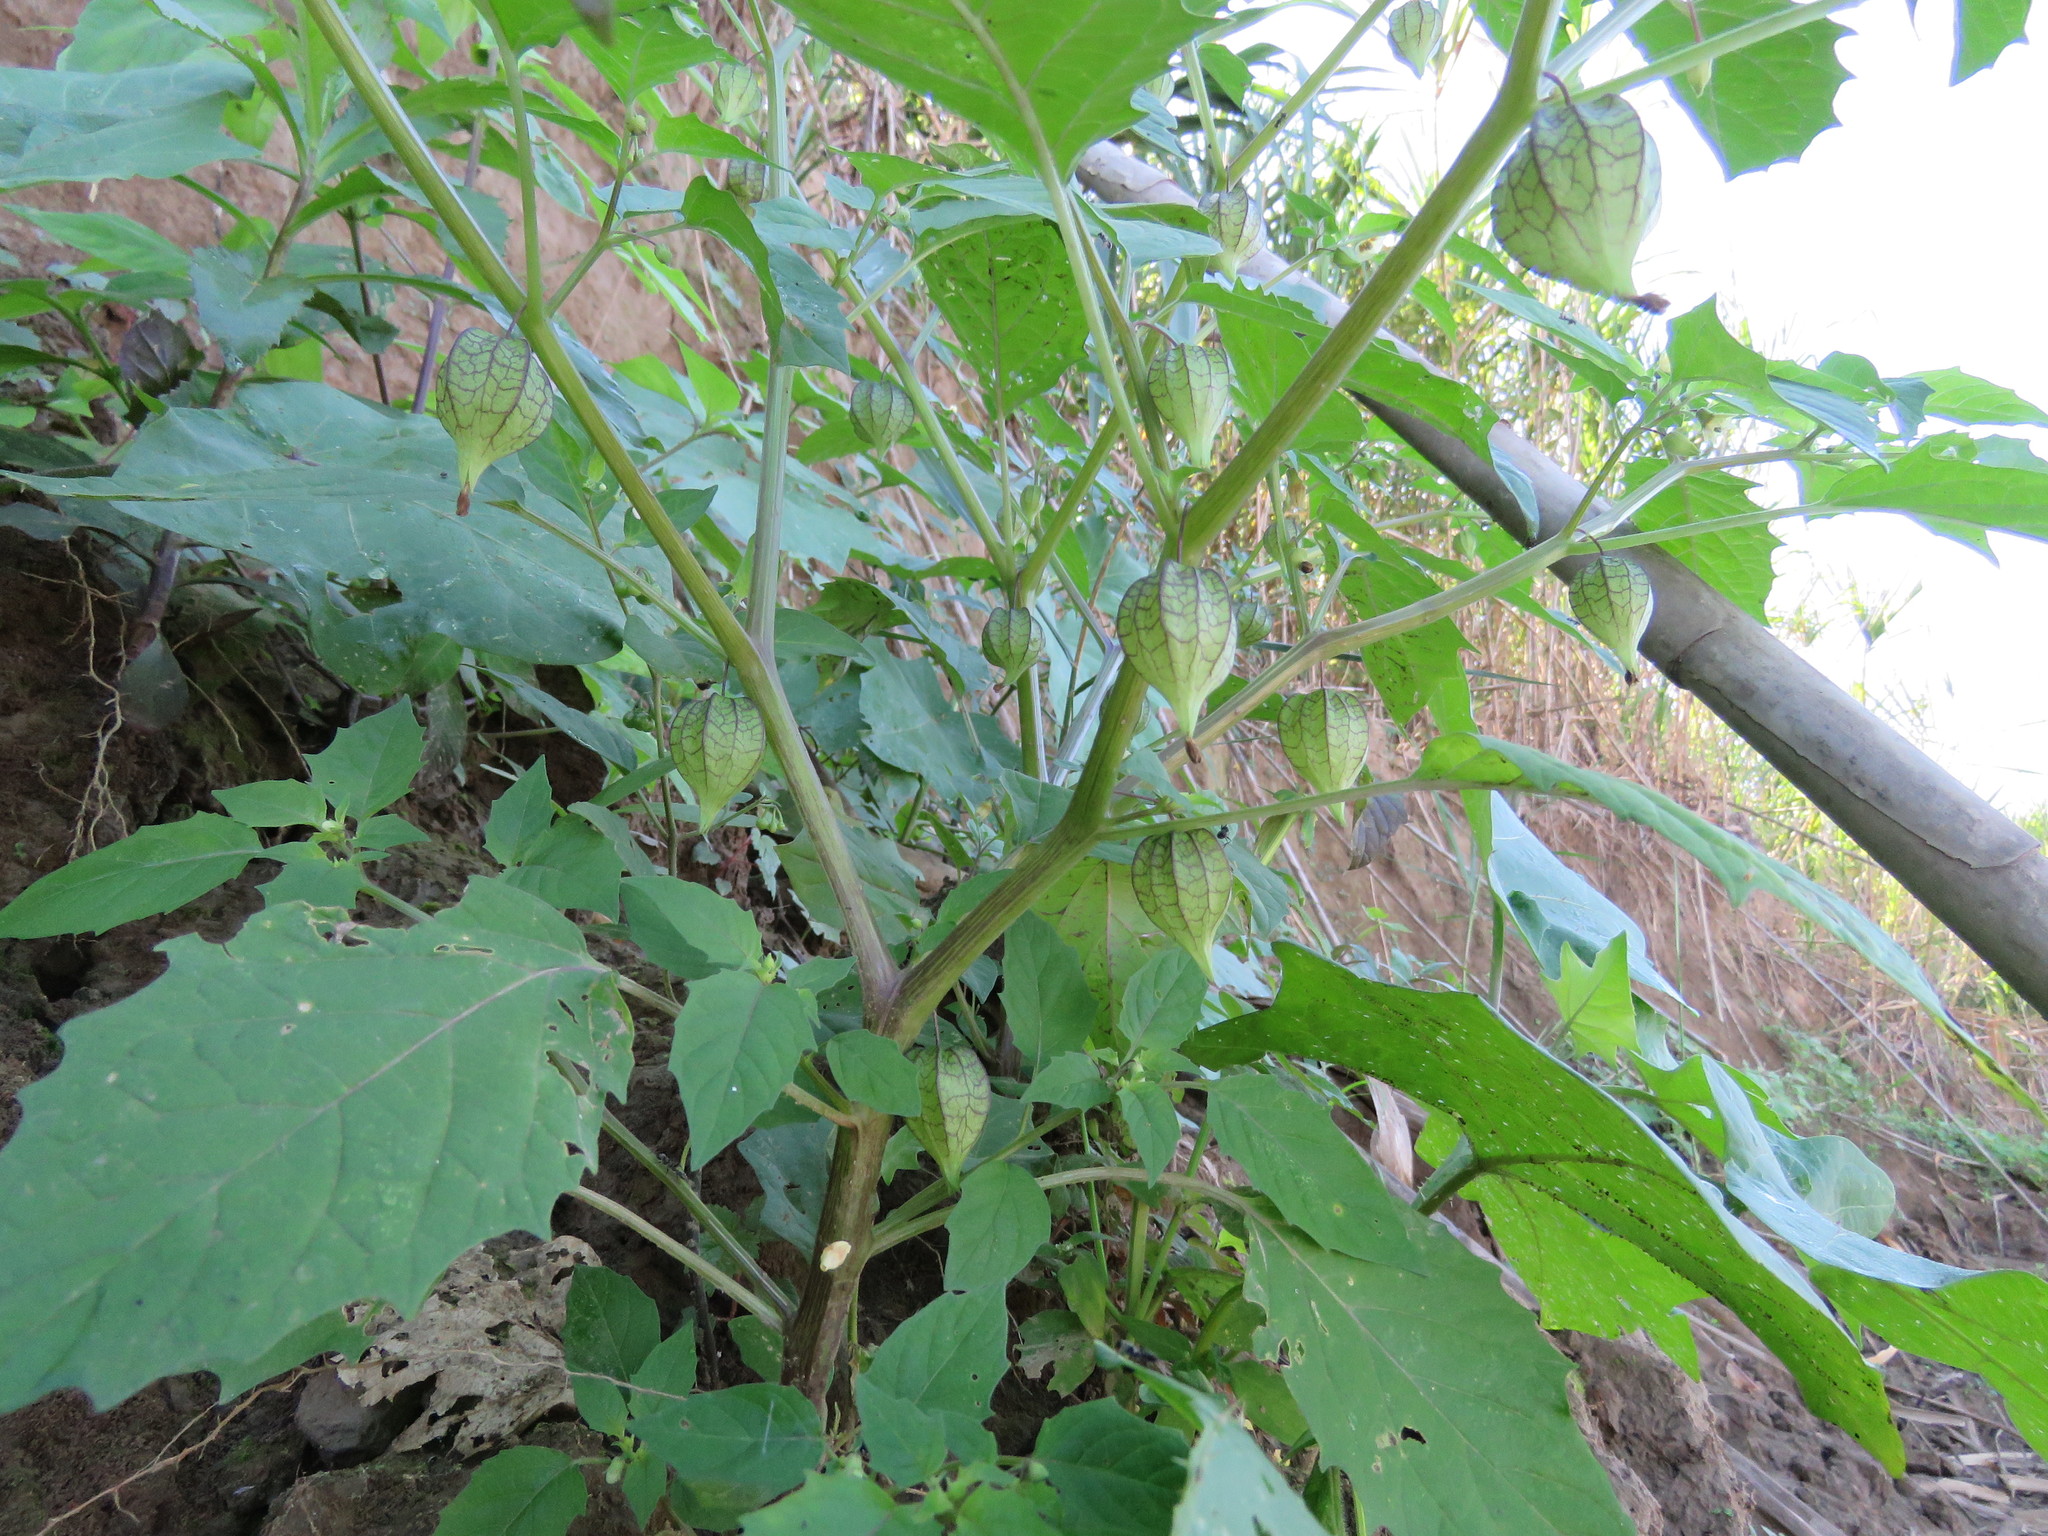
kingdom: Plantae
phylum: Tracheophyta
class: Magnoliopsida
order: Solanales
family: Solanaceae
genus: Physalis
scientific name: Physalis angulata
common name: Angular winter-cherry
